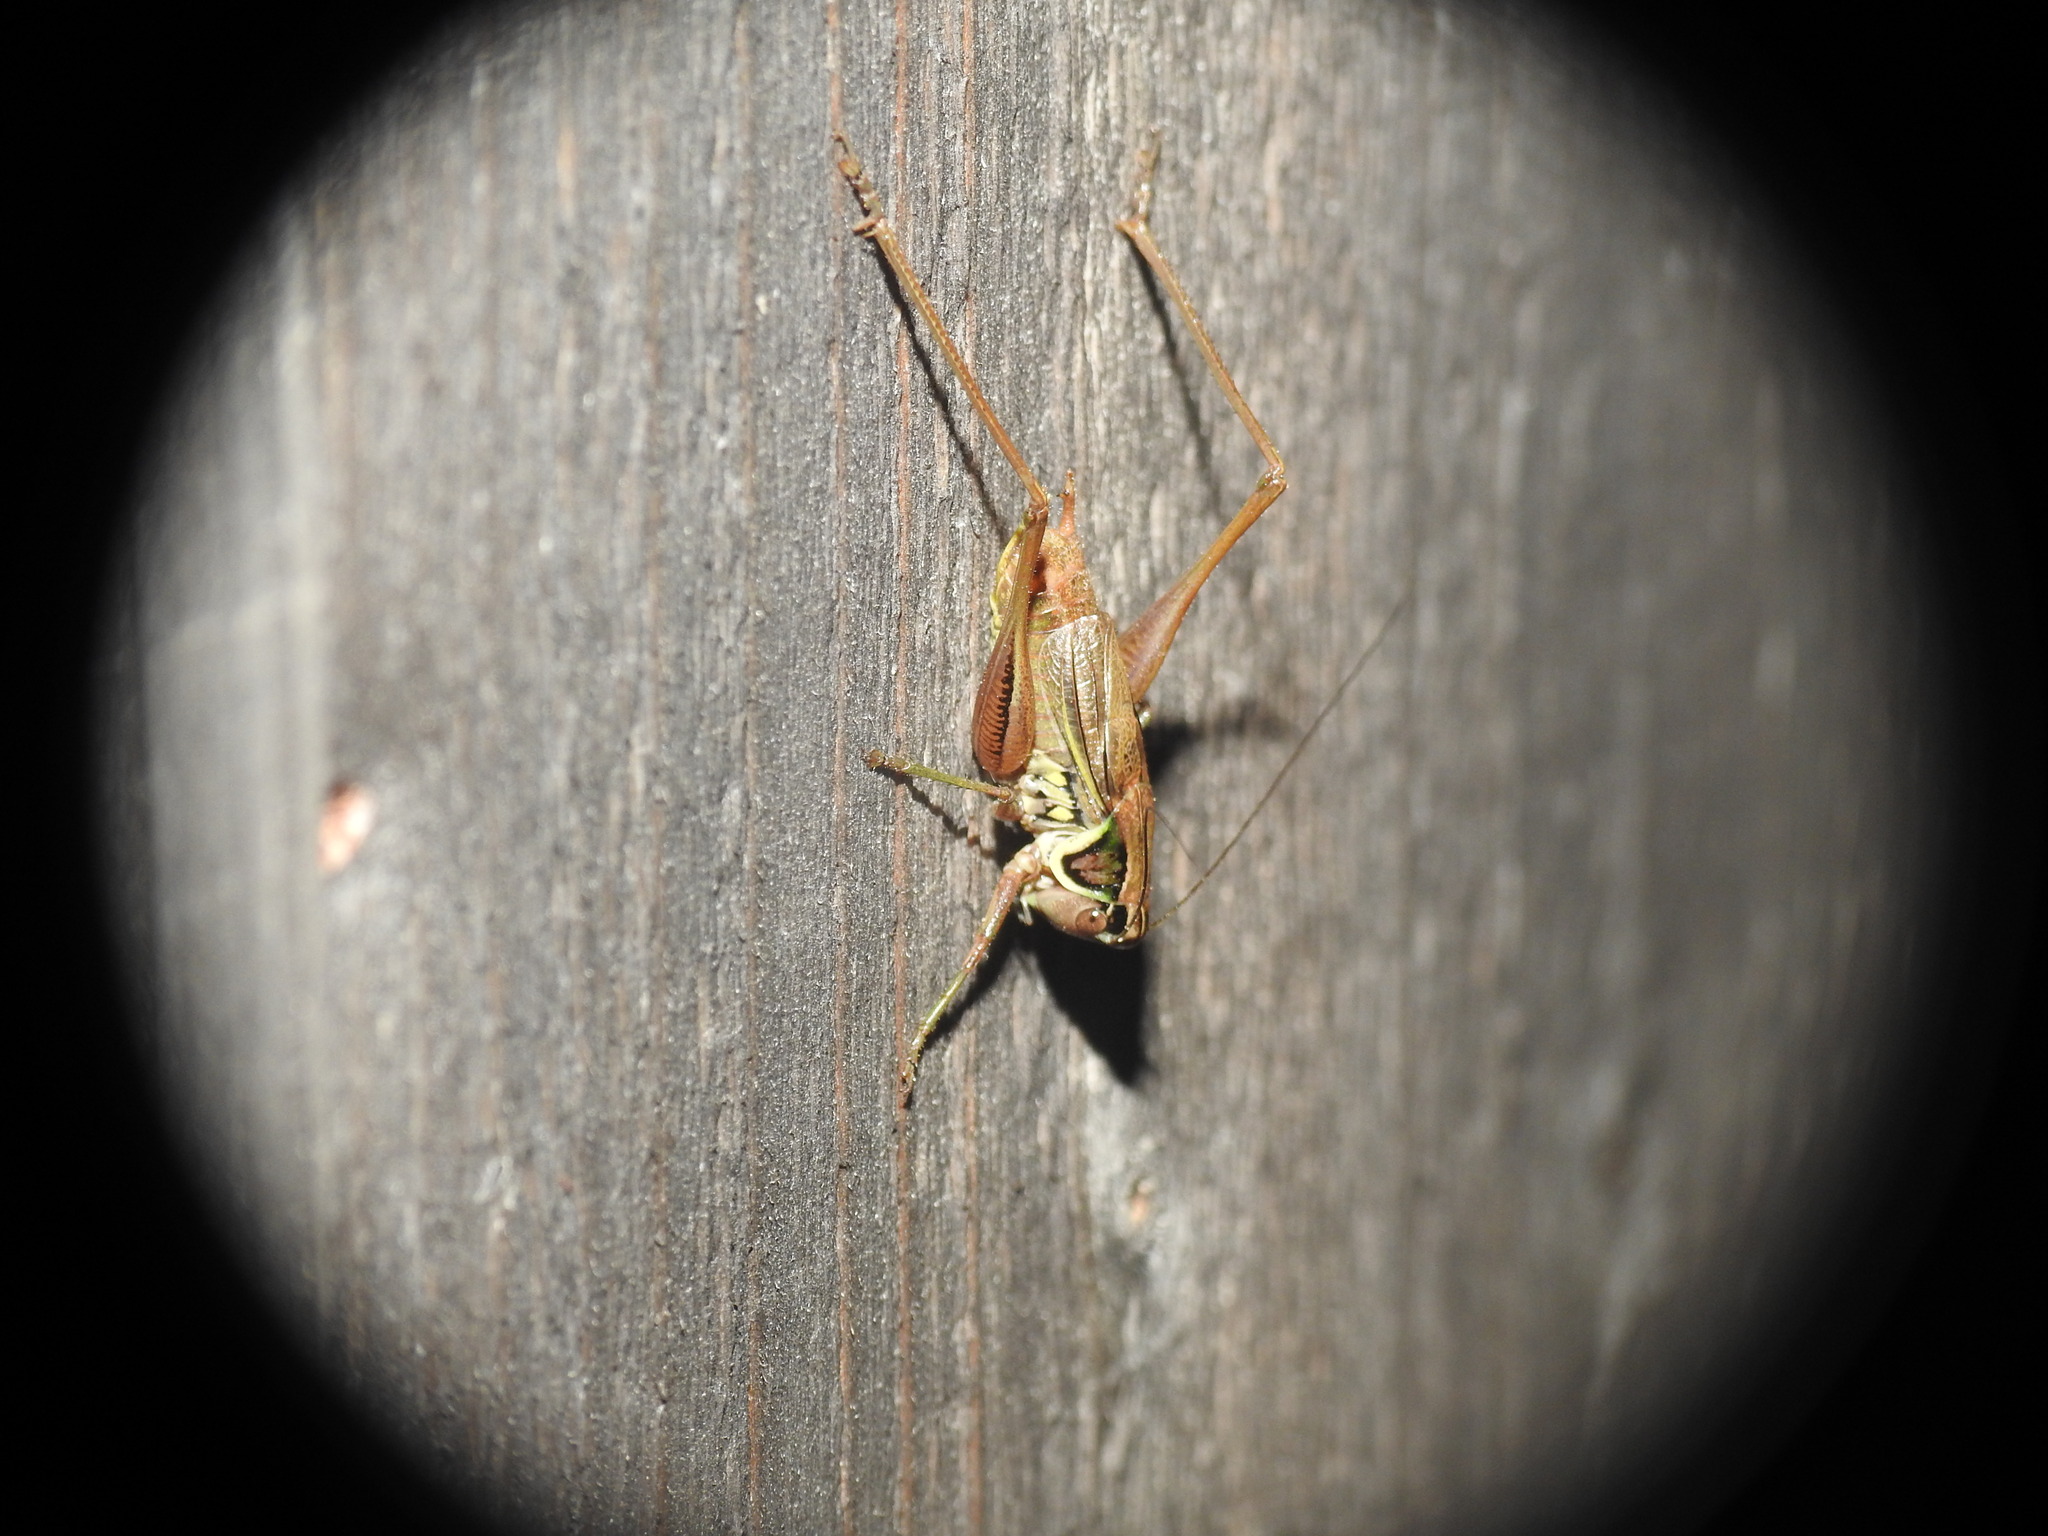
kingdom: Animalia
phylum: Arthropoda
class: Insecta
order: Orthoptera
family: Tettigoniidae
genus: Roeseliana
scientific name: Roeseliana roeselii
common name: Roesel's bush cricket
